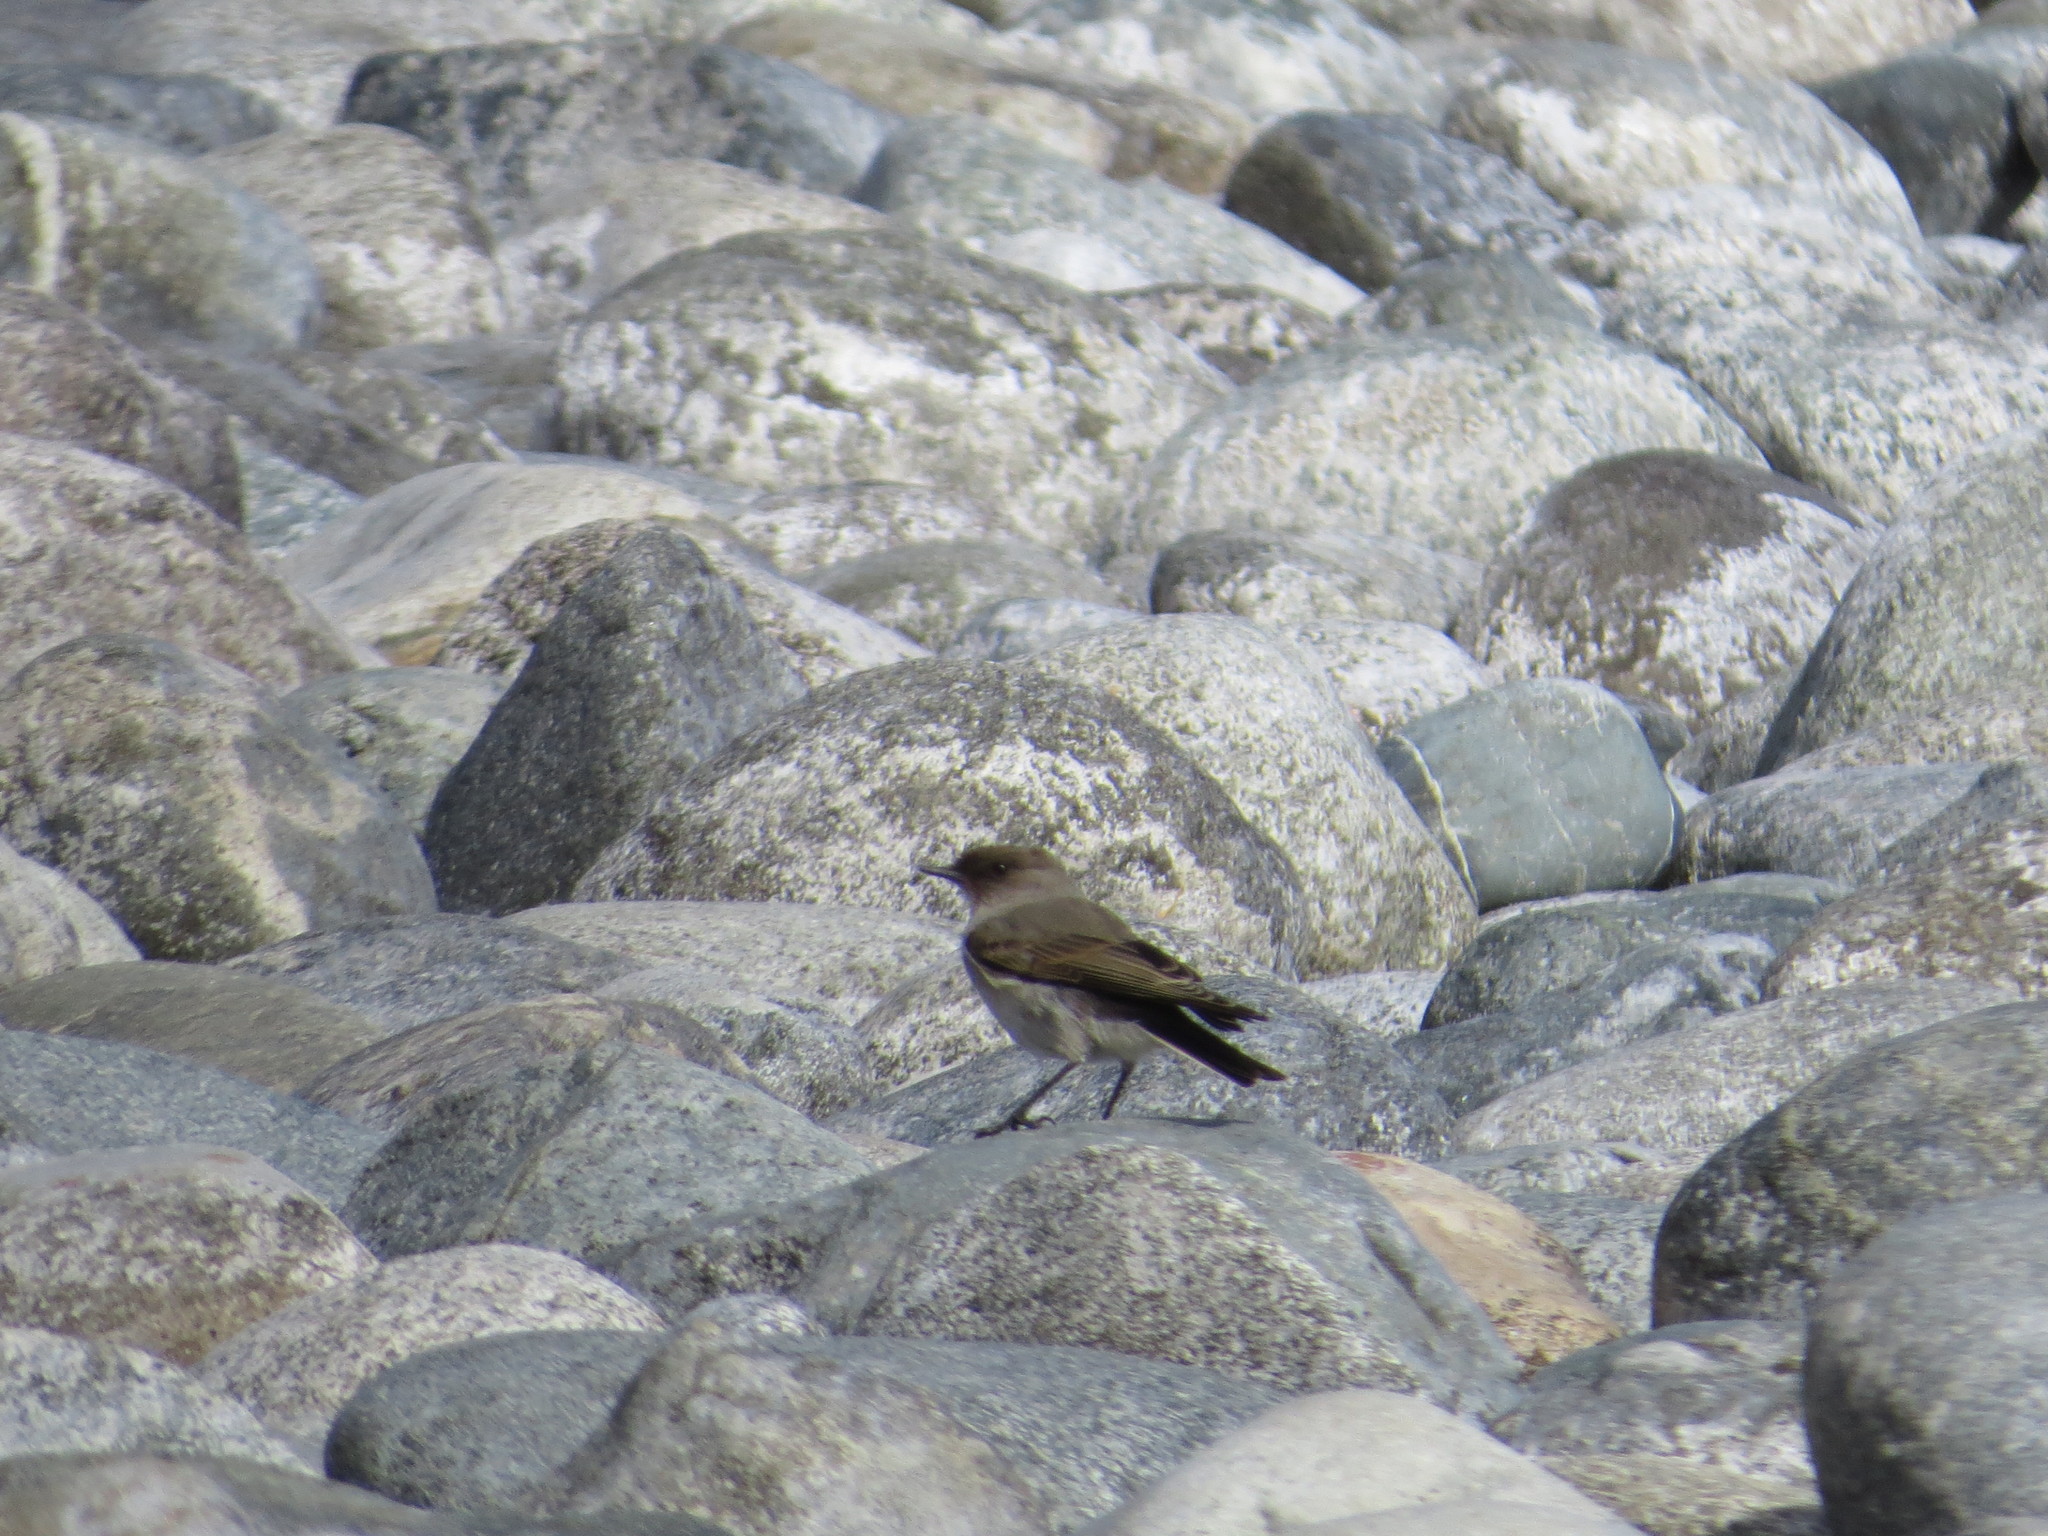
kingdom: Animalia
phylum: Chordata
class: Aves
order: Passeriformes
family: Tyrannidae
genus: Muscisaxicola
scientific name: Muscisaxicola maclovianus
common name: Dark-faced ground tyrant
